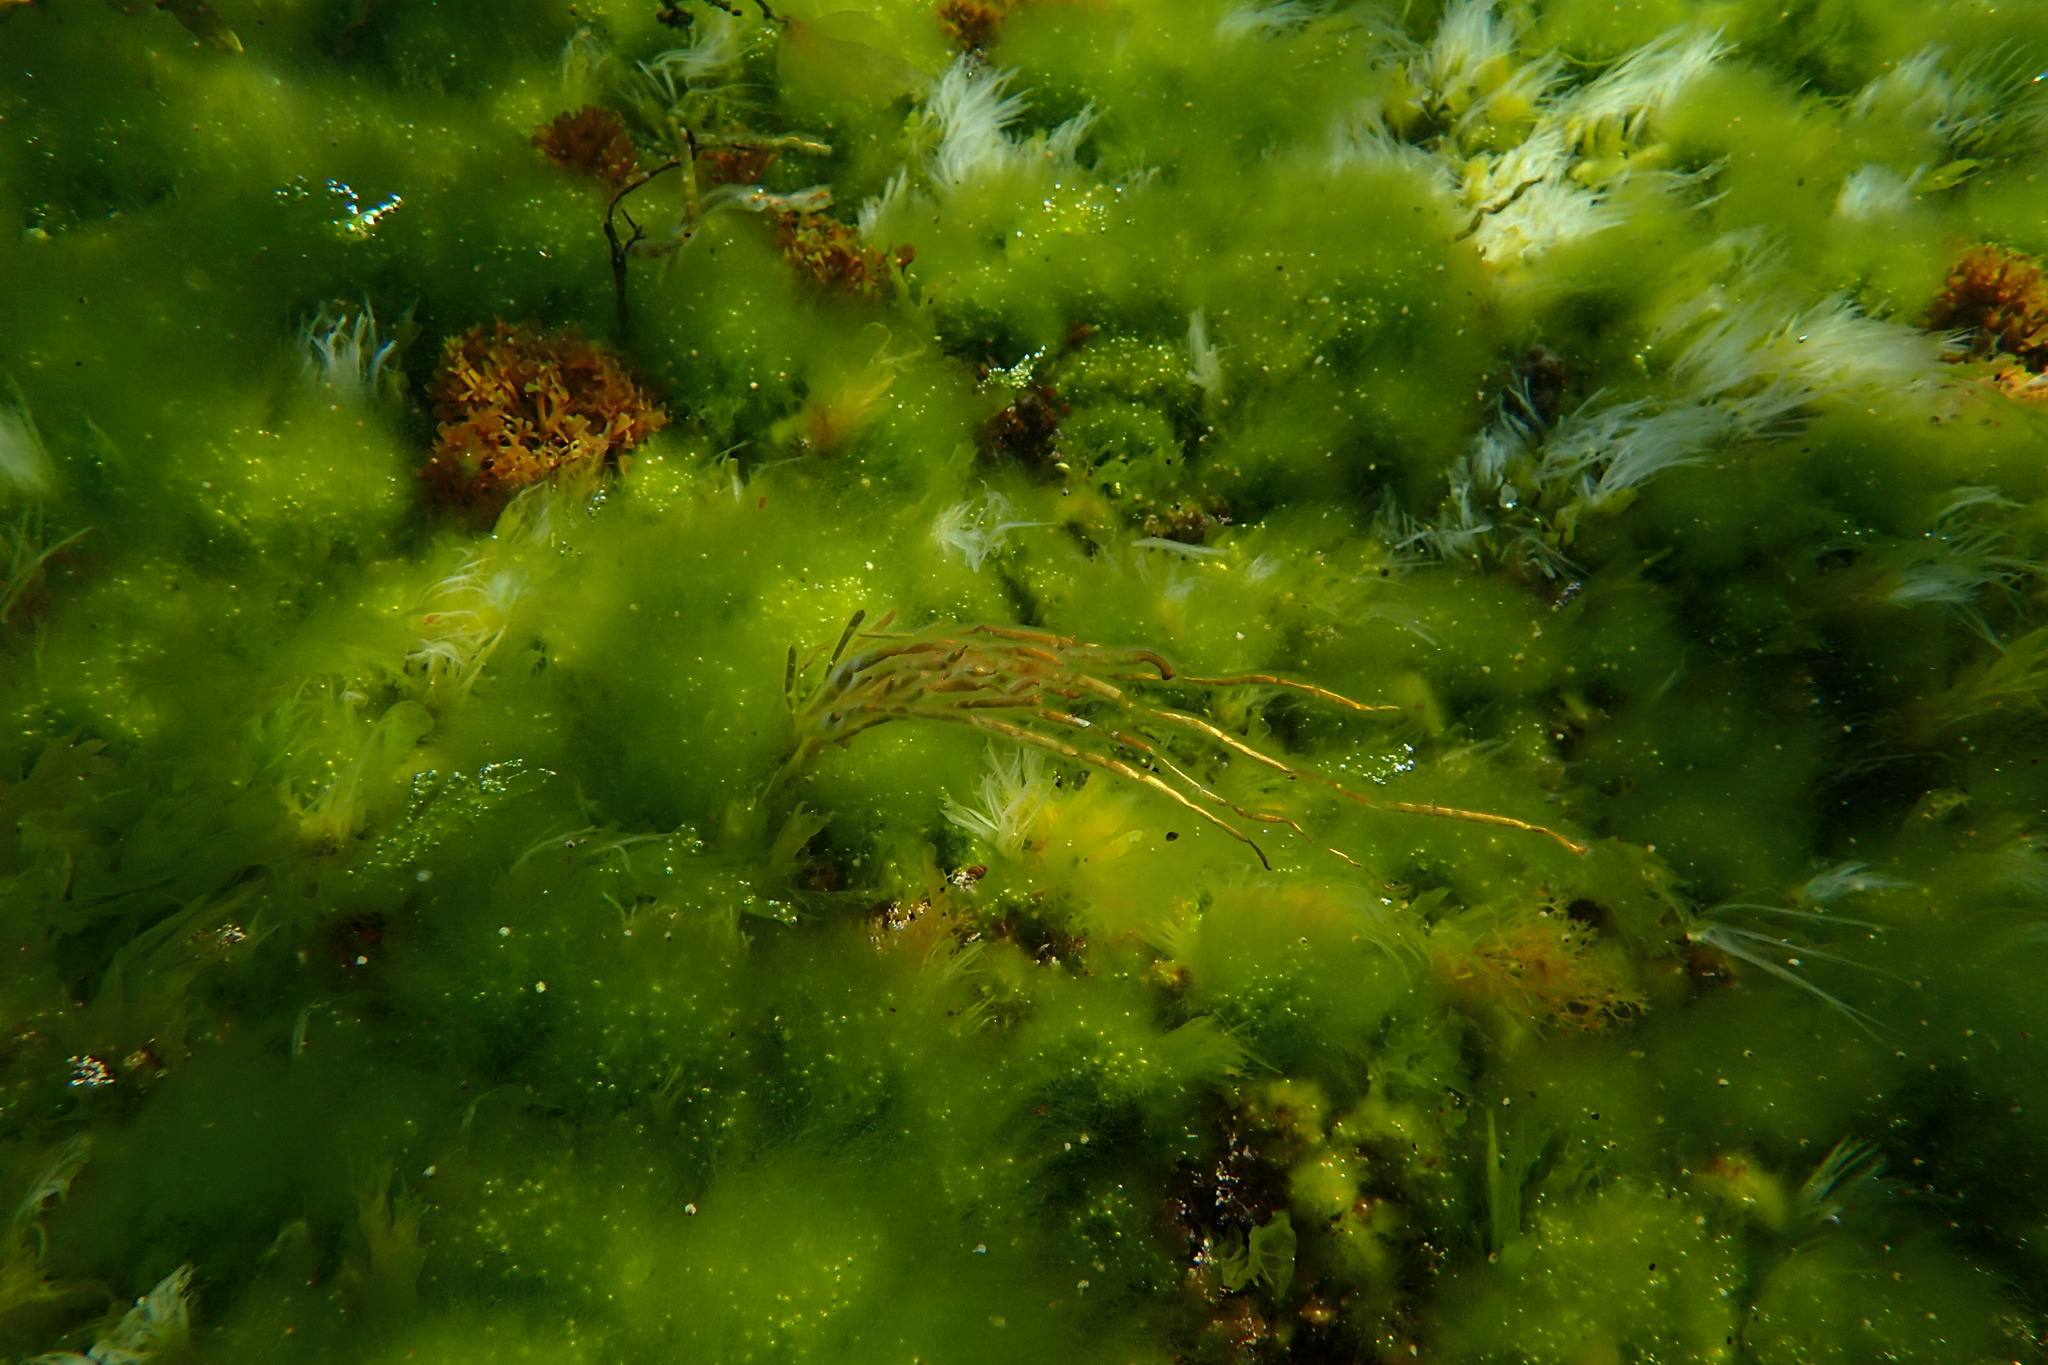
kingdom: Chromista
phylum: Ochrophyta
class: Phaeophyceae
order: Scytosiphonales
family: Scytosiphonaceae
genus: Scytosiphon
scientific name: Scytosiphon lomentaria
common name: Beanweed
